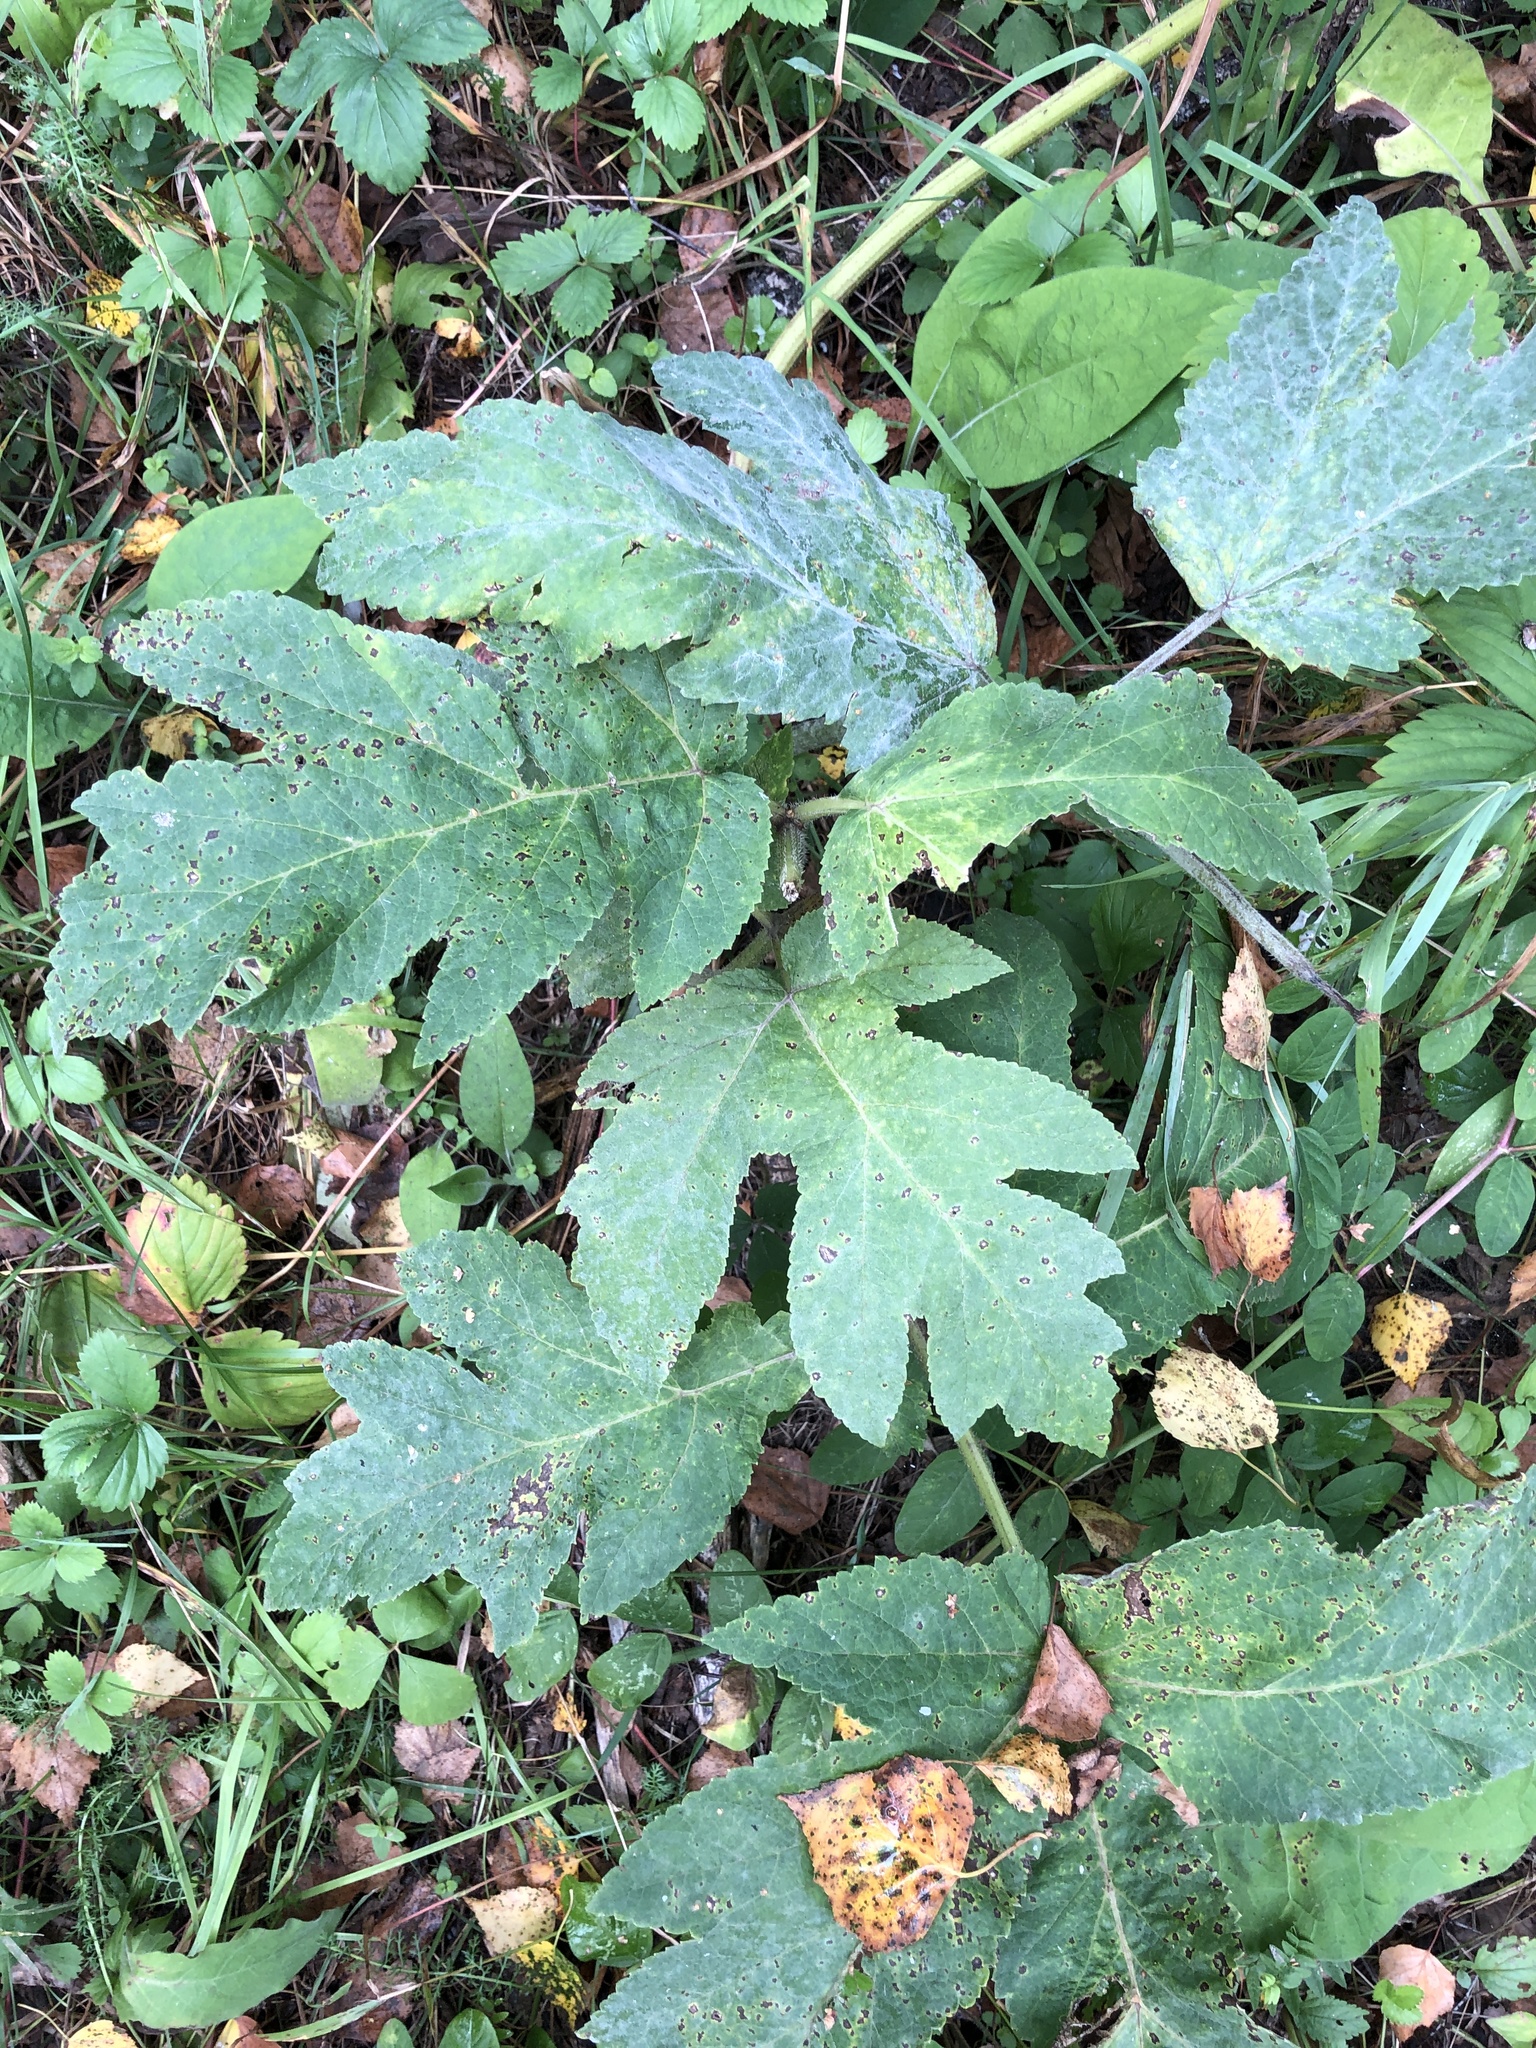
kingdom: Plantae
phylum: Tracheophyta
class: Magnoliopsida
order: Apiales
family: Apiaceae
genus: Heracleum
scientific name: Heracleum dissectum
